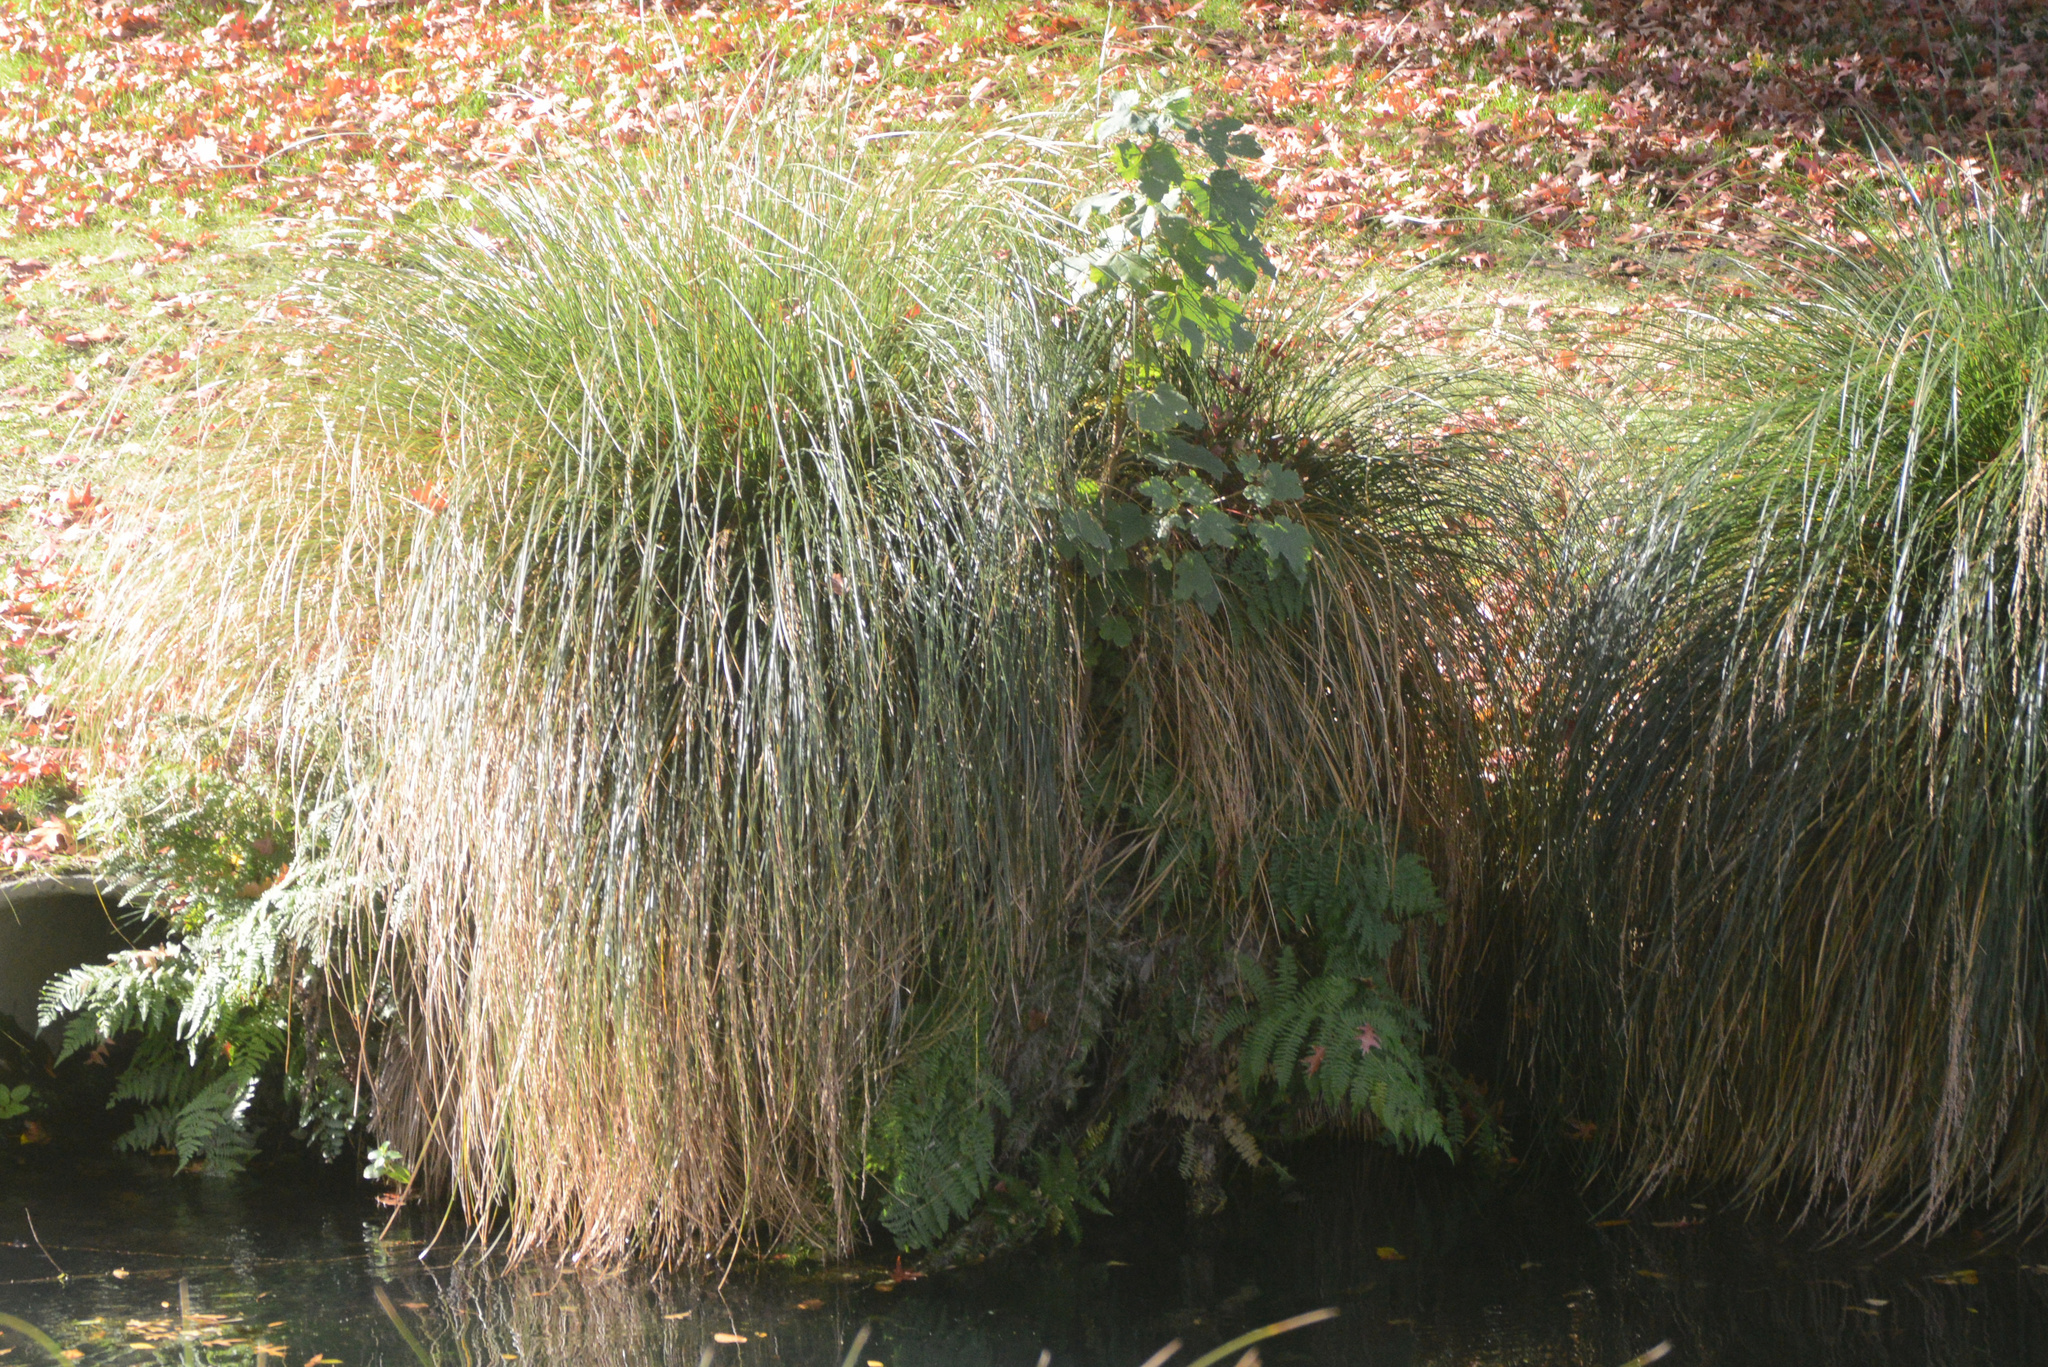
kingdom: Plantae
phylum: Tracheophyta
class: Magnoliopsida
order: Sapindales
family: Sapindaceae
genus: Acer
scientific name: Acer pseudoplatanus
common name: Sycamore
